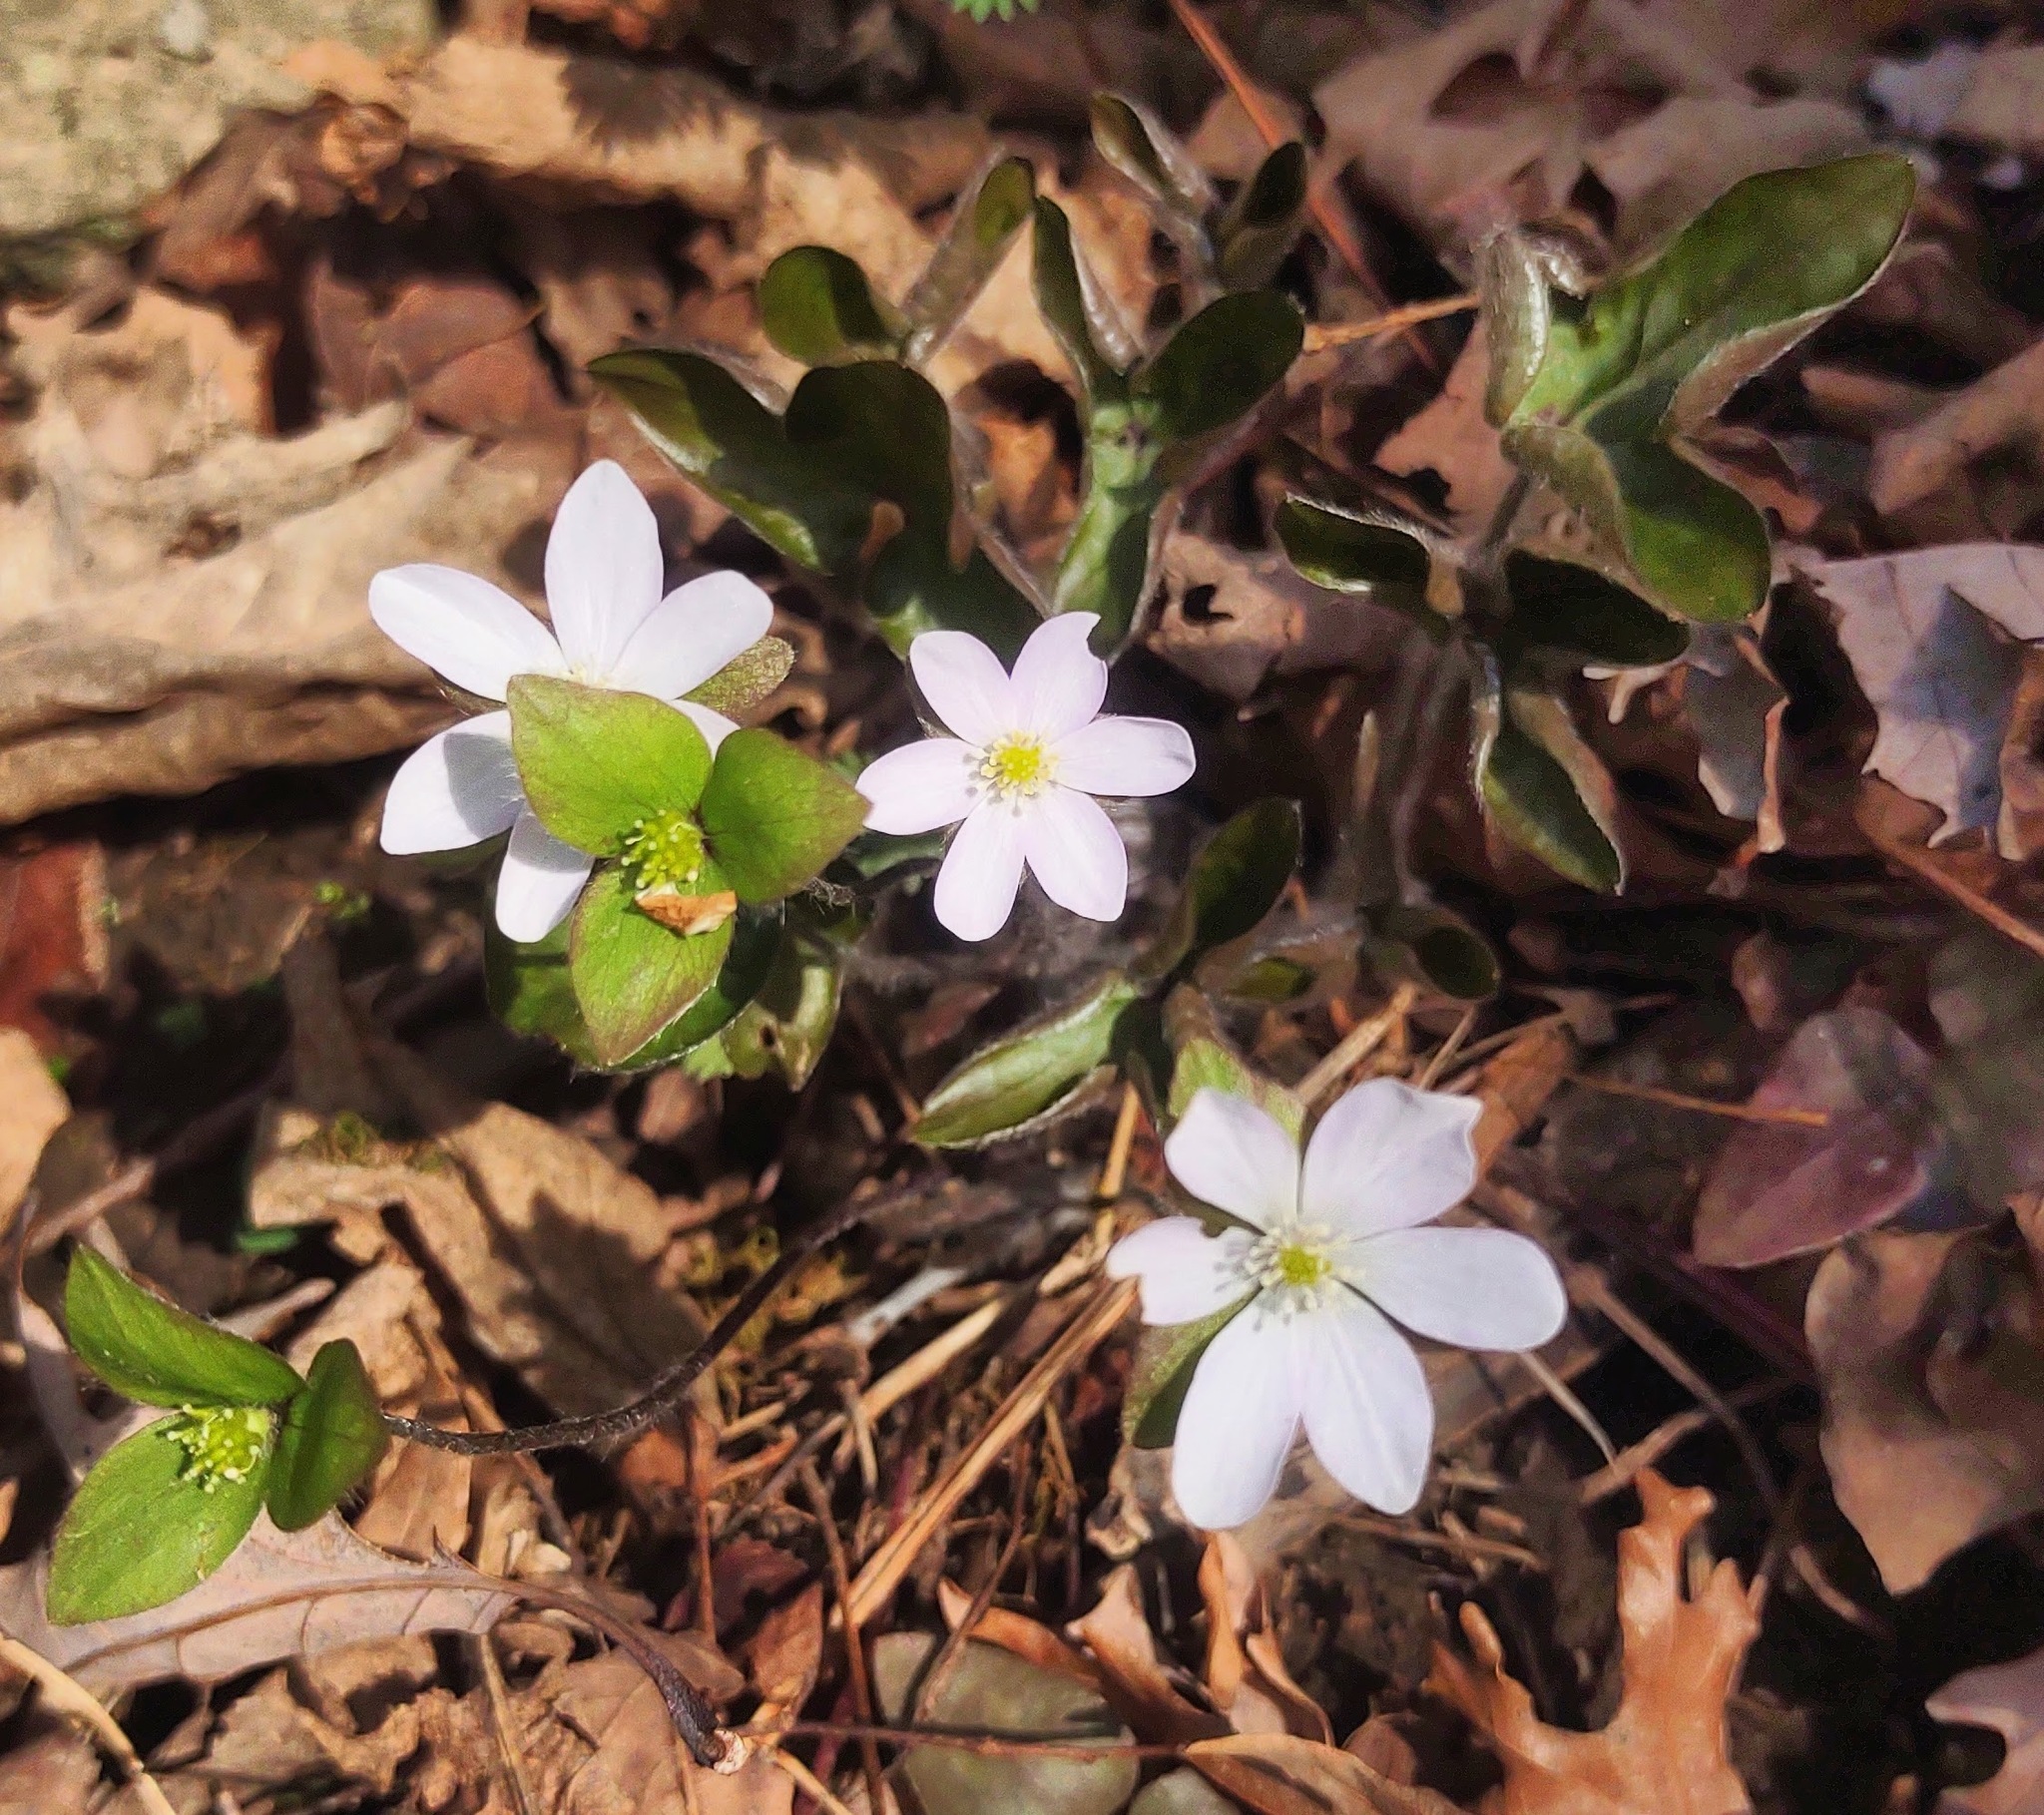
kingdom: Plantae
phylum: Tracheophyta
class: Magnoliopsida
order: Ranunculales
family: Ranunculaceae
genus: Hepatica
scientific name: Hepatica acutiloba
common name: Sharp-lobed hepatica
